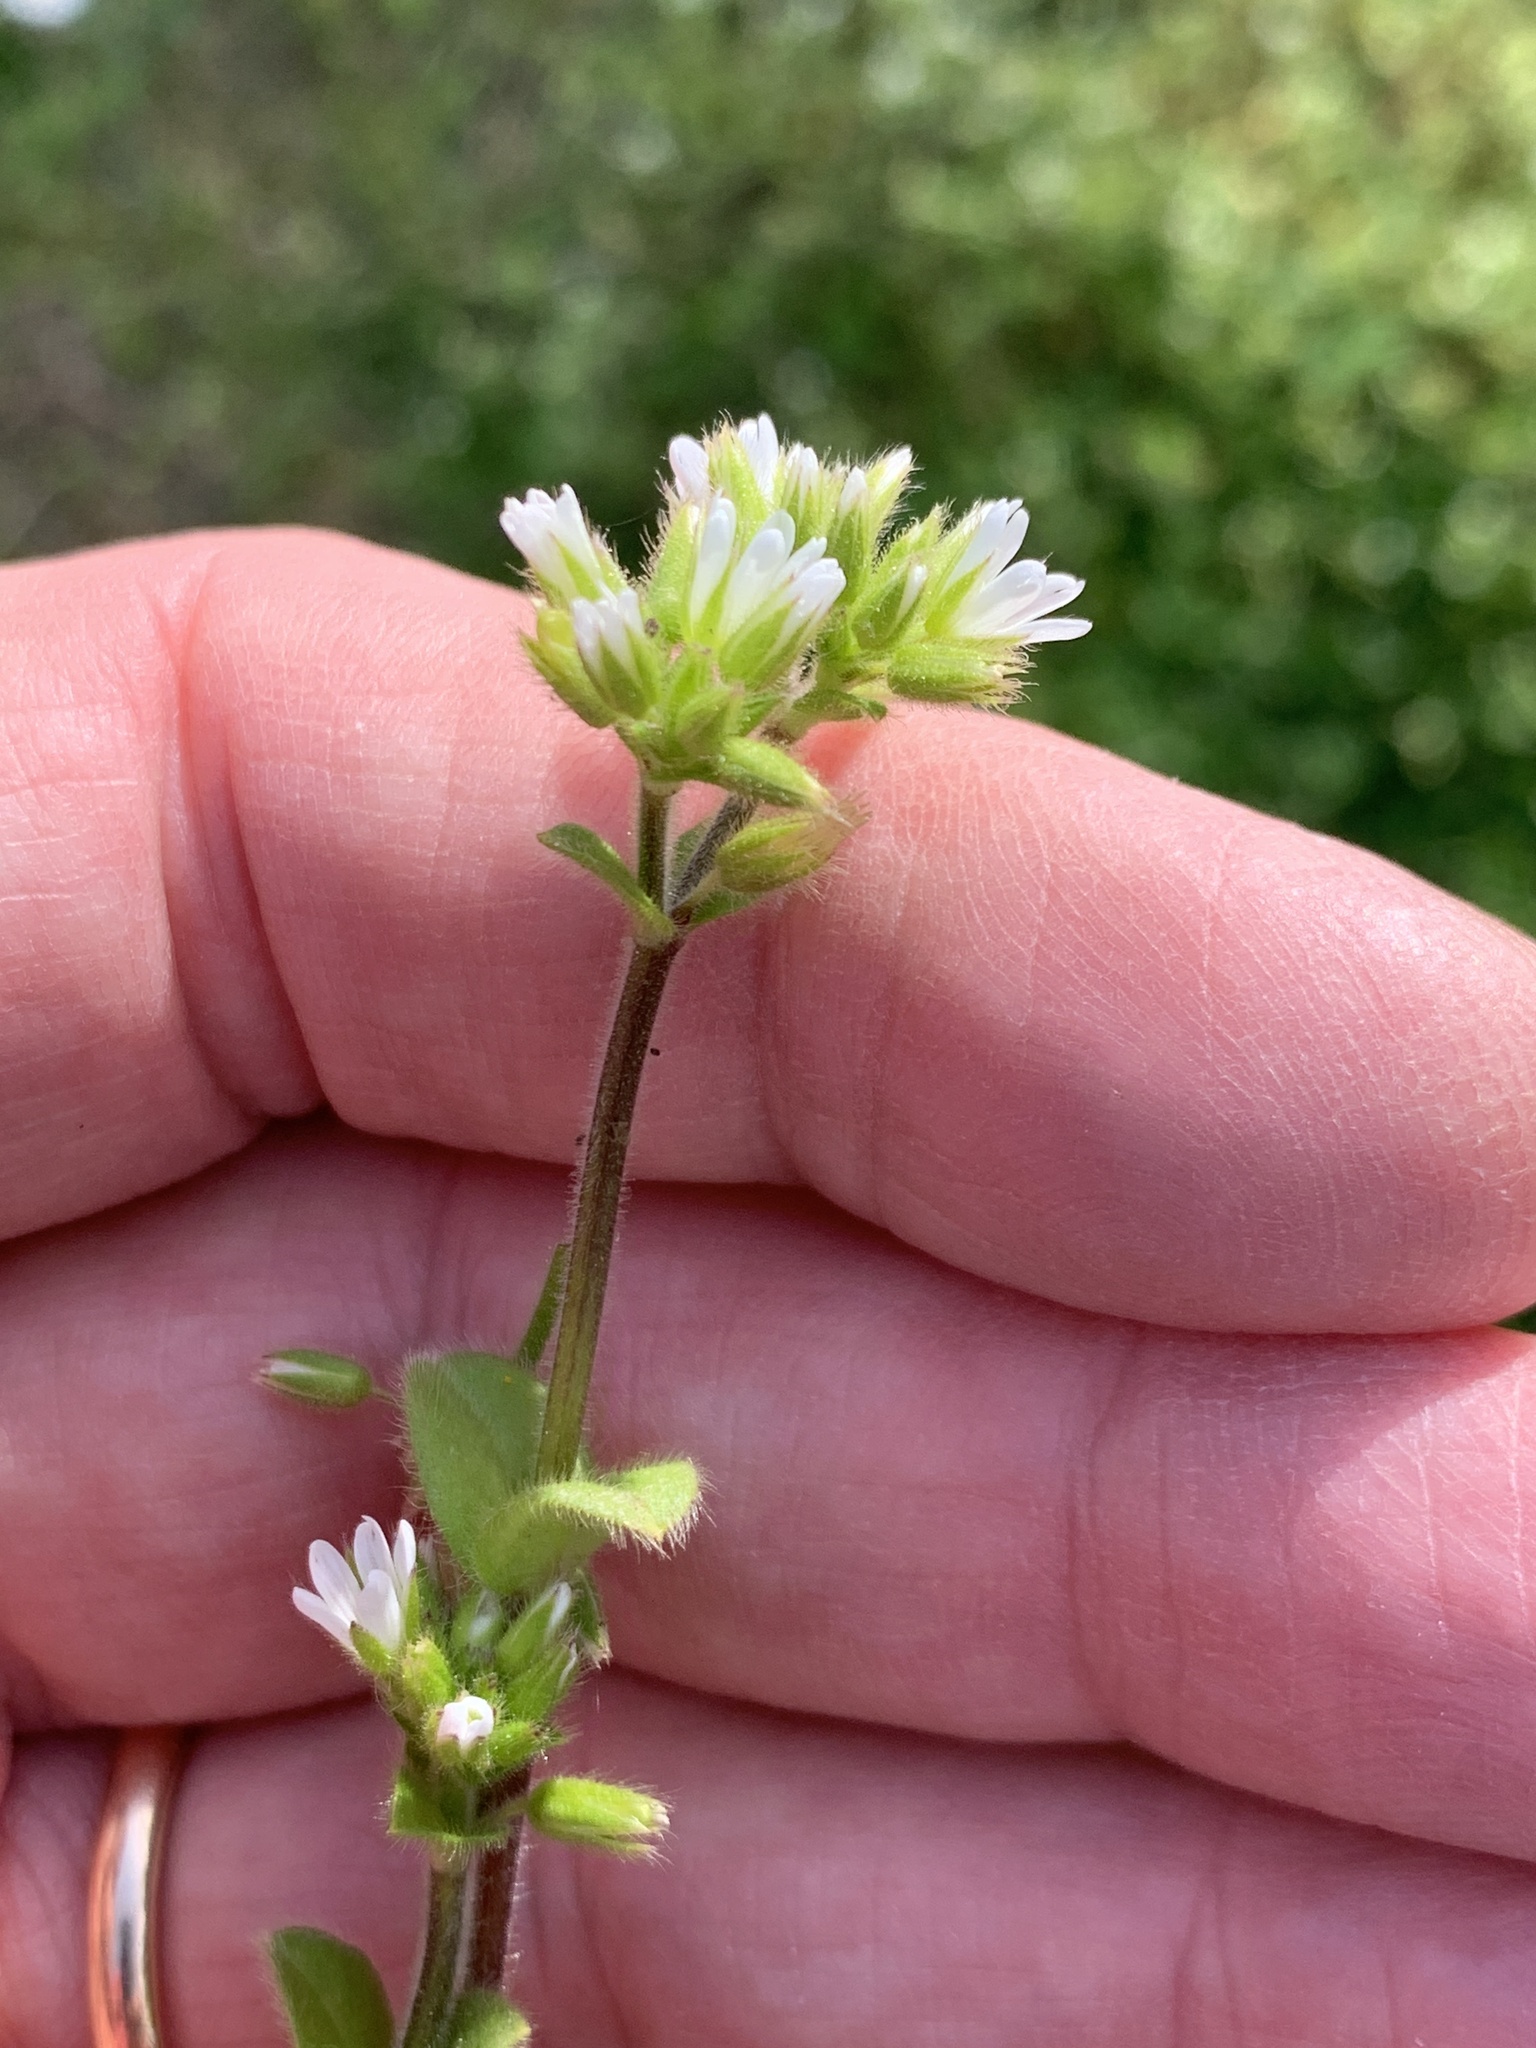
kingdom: Plantae
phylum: Tracheophyta
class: Magnoliopsida
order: Caryophyllales
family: Caryophyllaceae
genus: Cerastium
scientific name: Cerastium glomeratum
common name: Sticky chickweed
